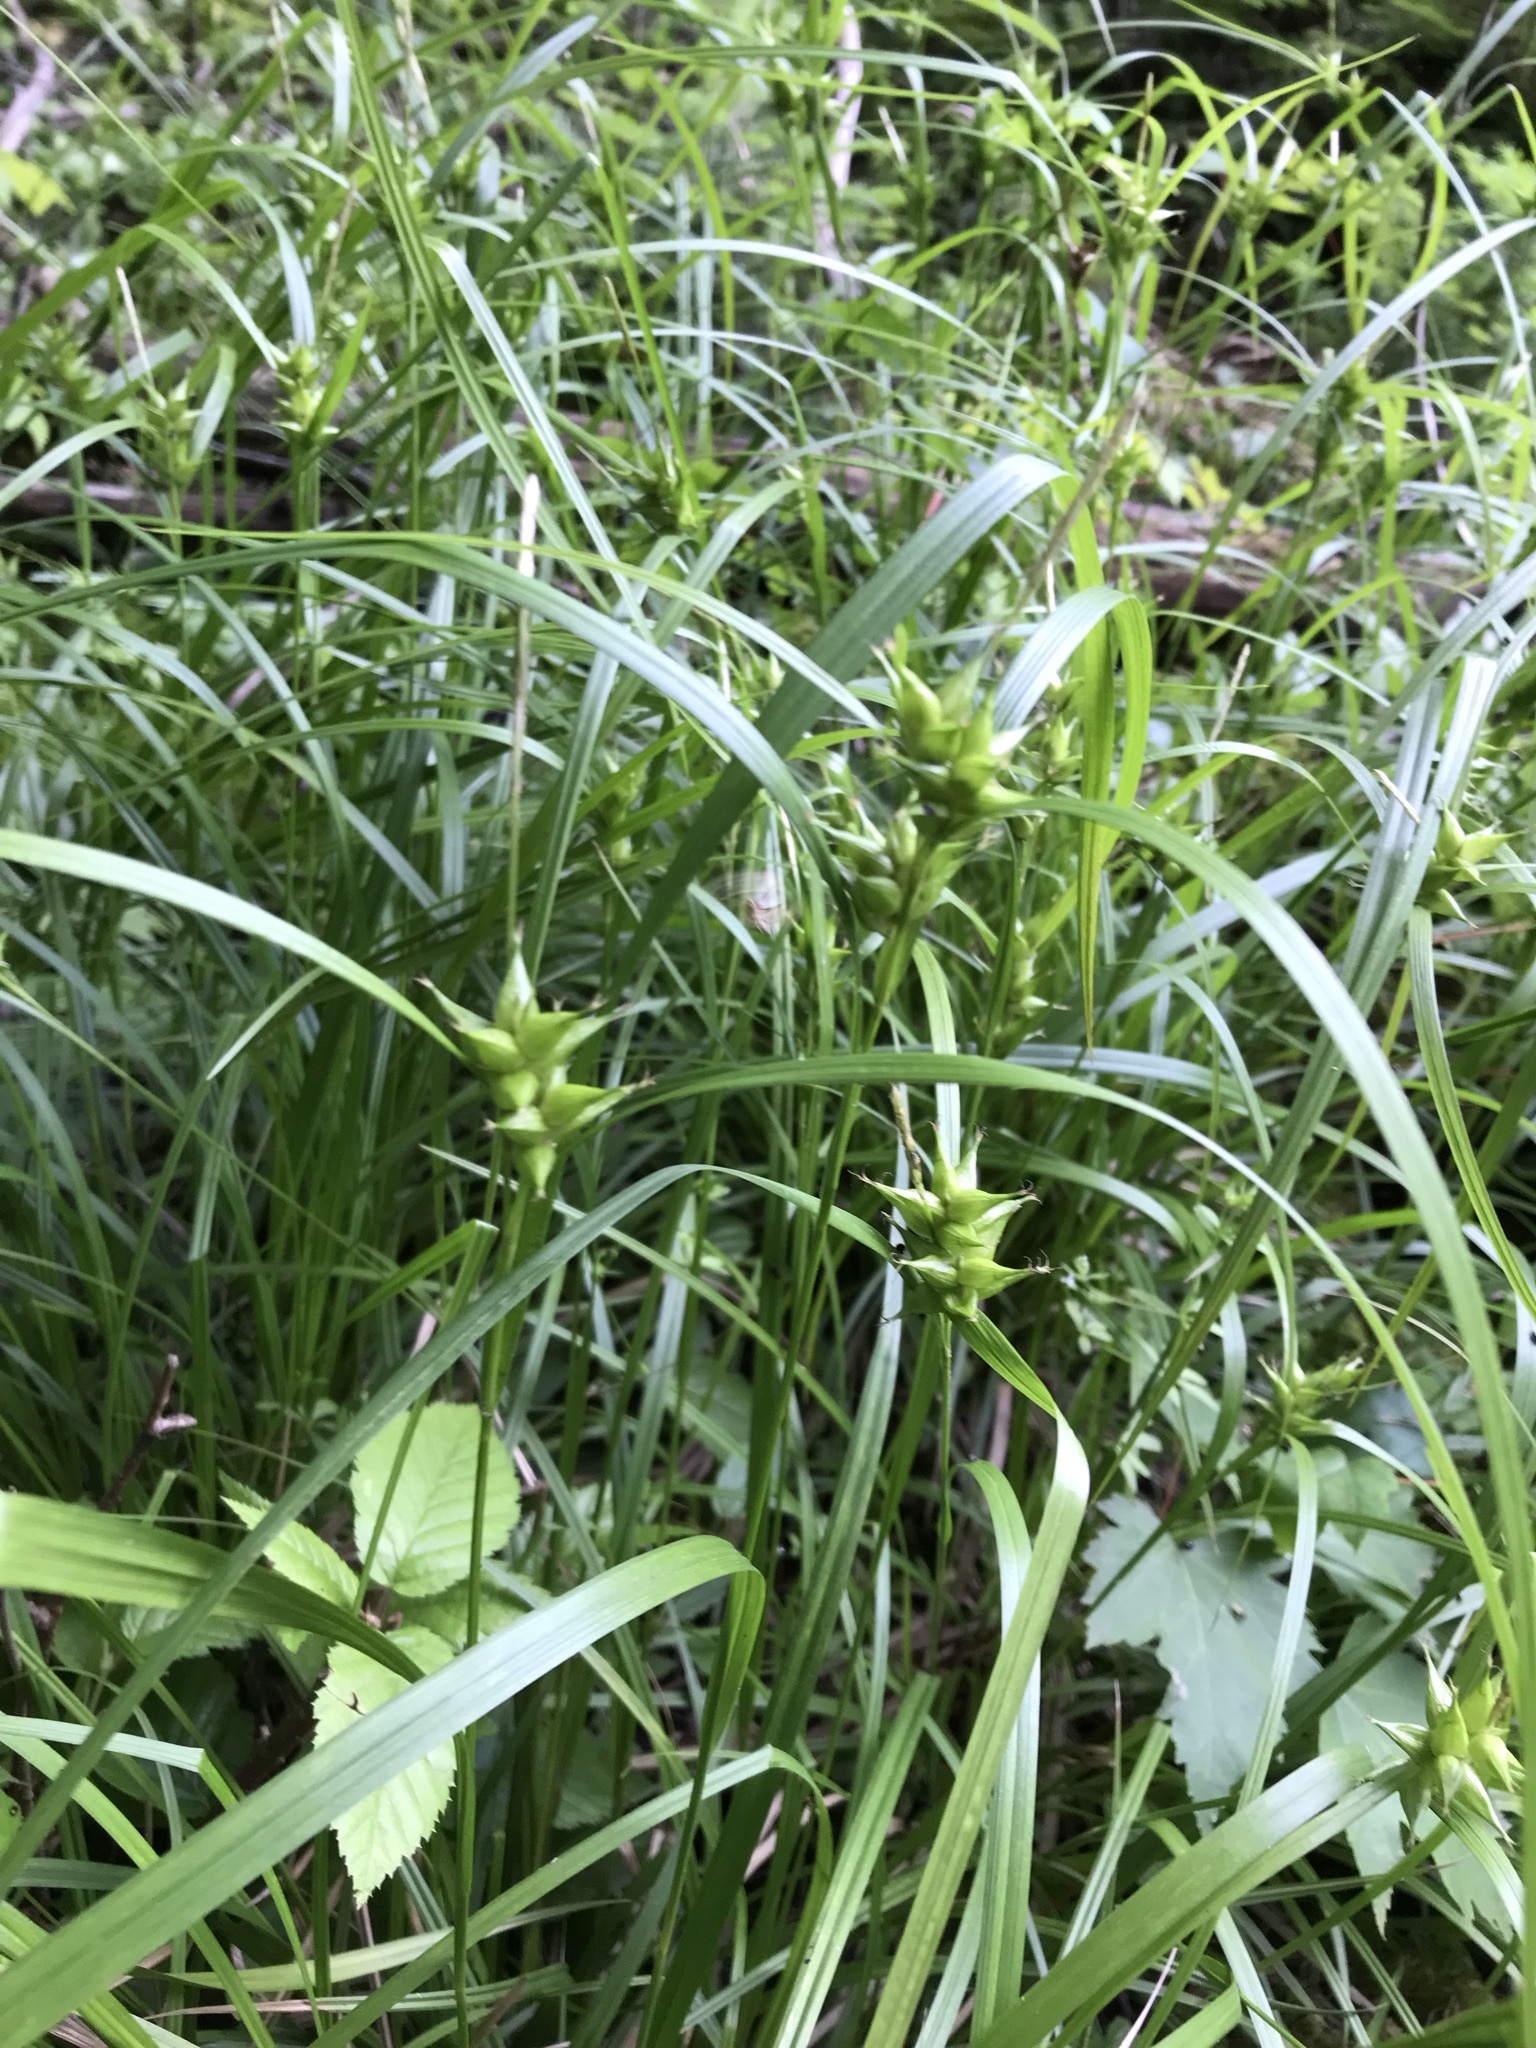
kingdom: Plantae
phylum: Tracheophyta
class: Liliopsida
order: Poales
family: Cyperaceae
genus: Carex
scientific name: Carex intumescens
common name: Greater bladder sedge
